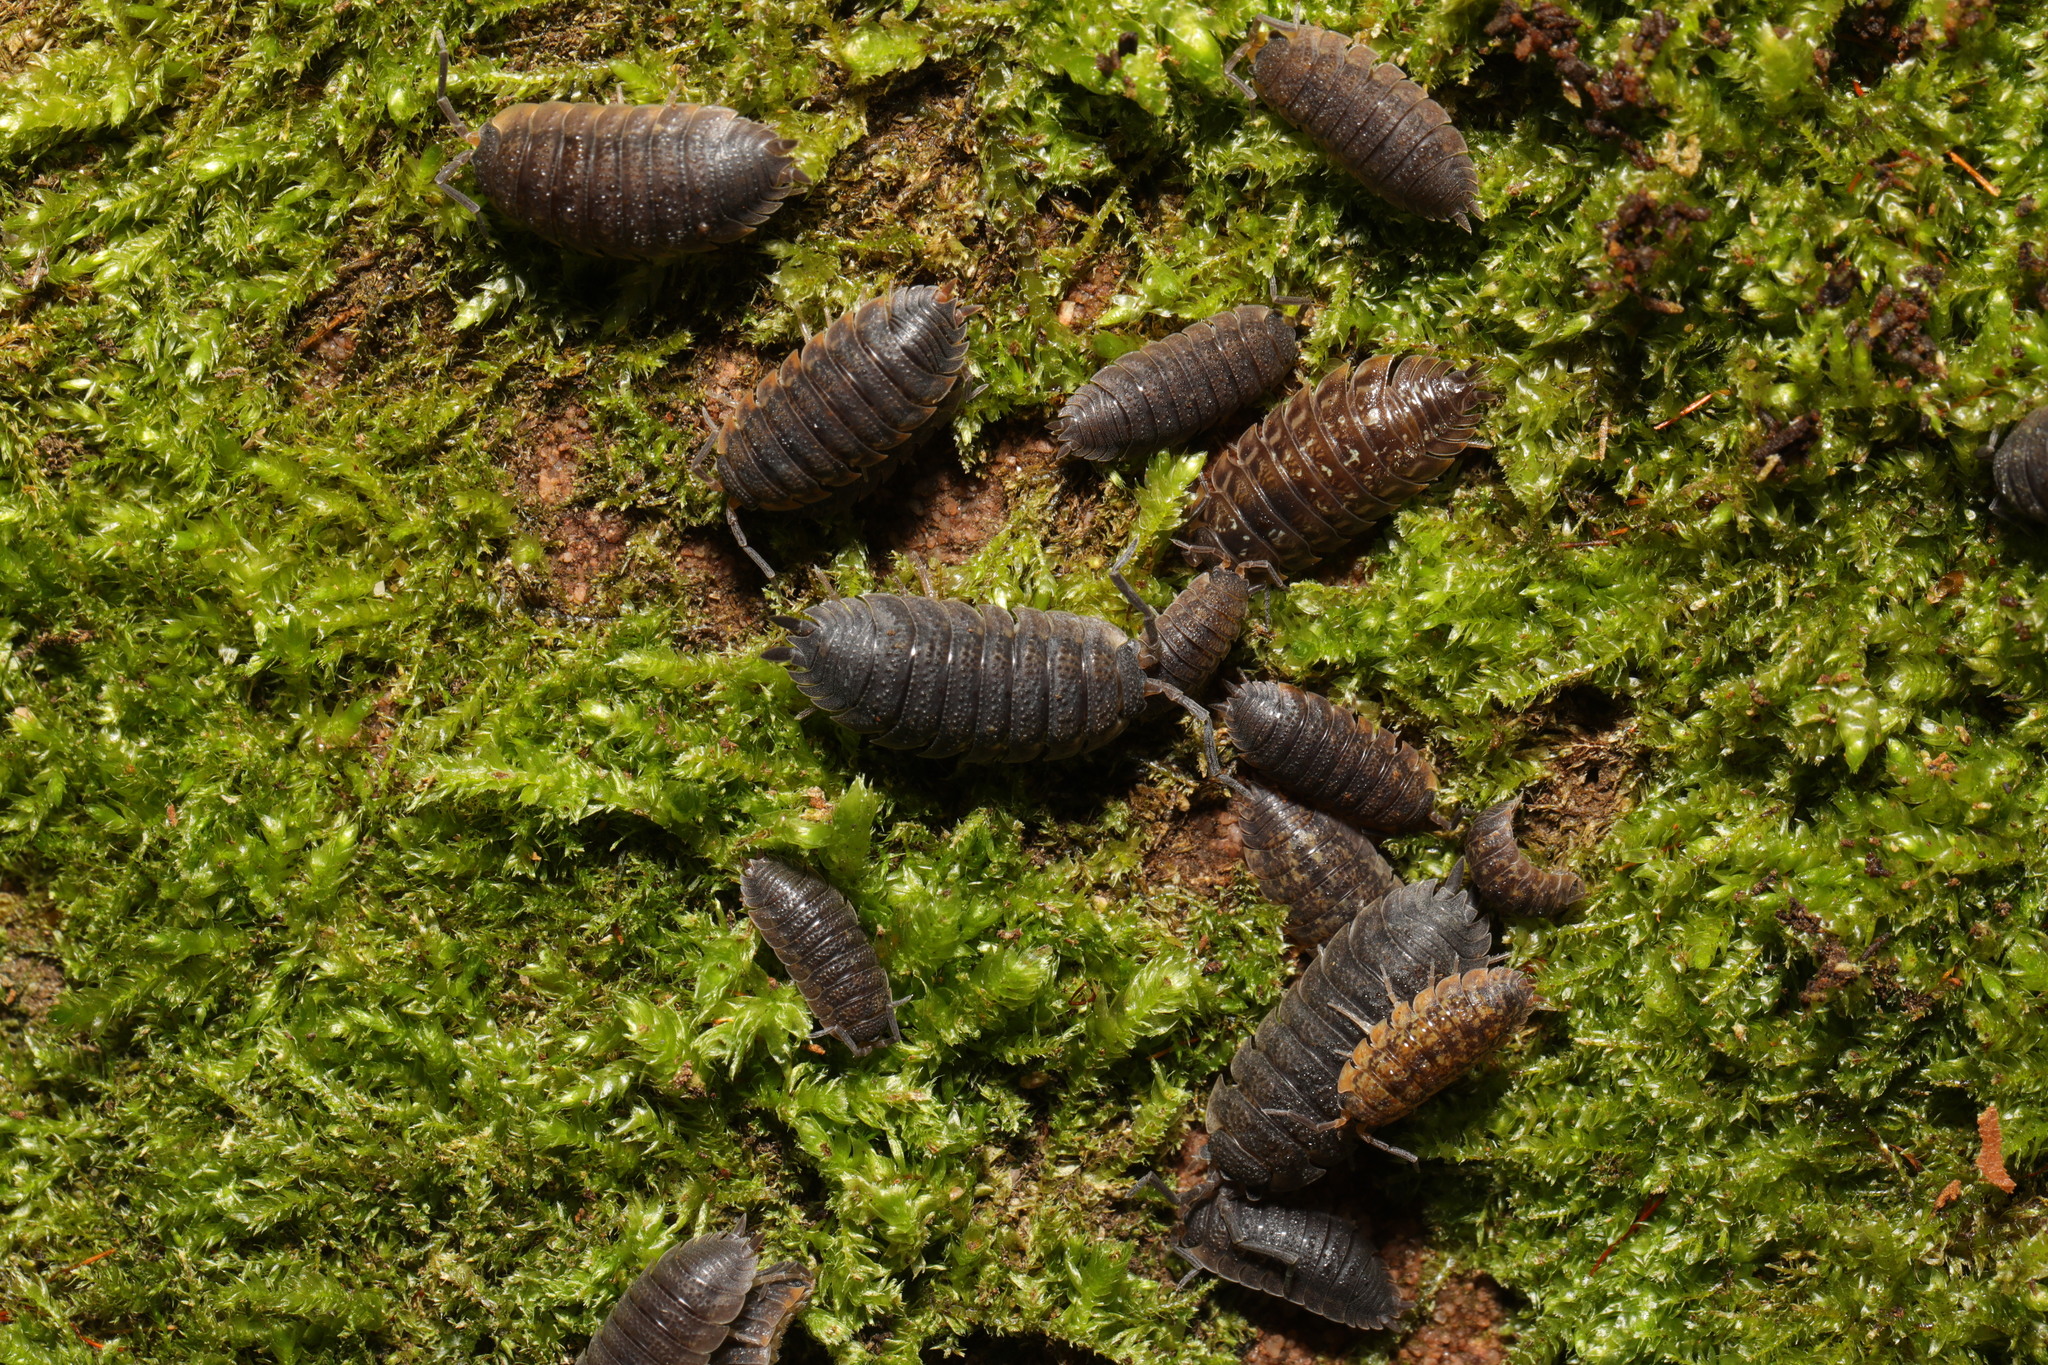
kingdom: Animalia
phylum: Arthropoda
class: Malacostraca
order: Isopoda
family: Porcellionidae
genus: Porcellio
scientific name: Porcellio scaber
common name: Common rough woodlouse
